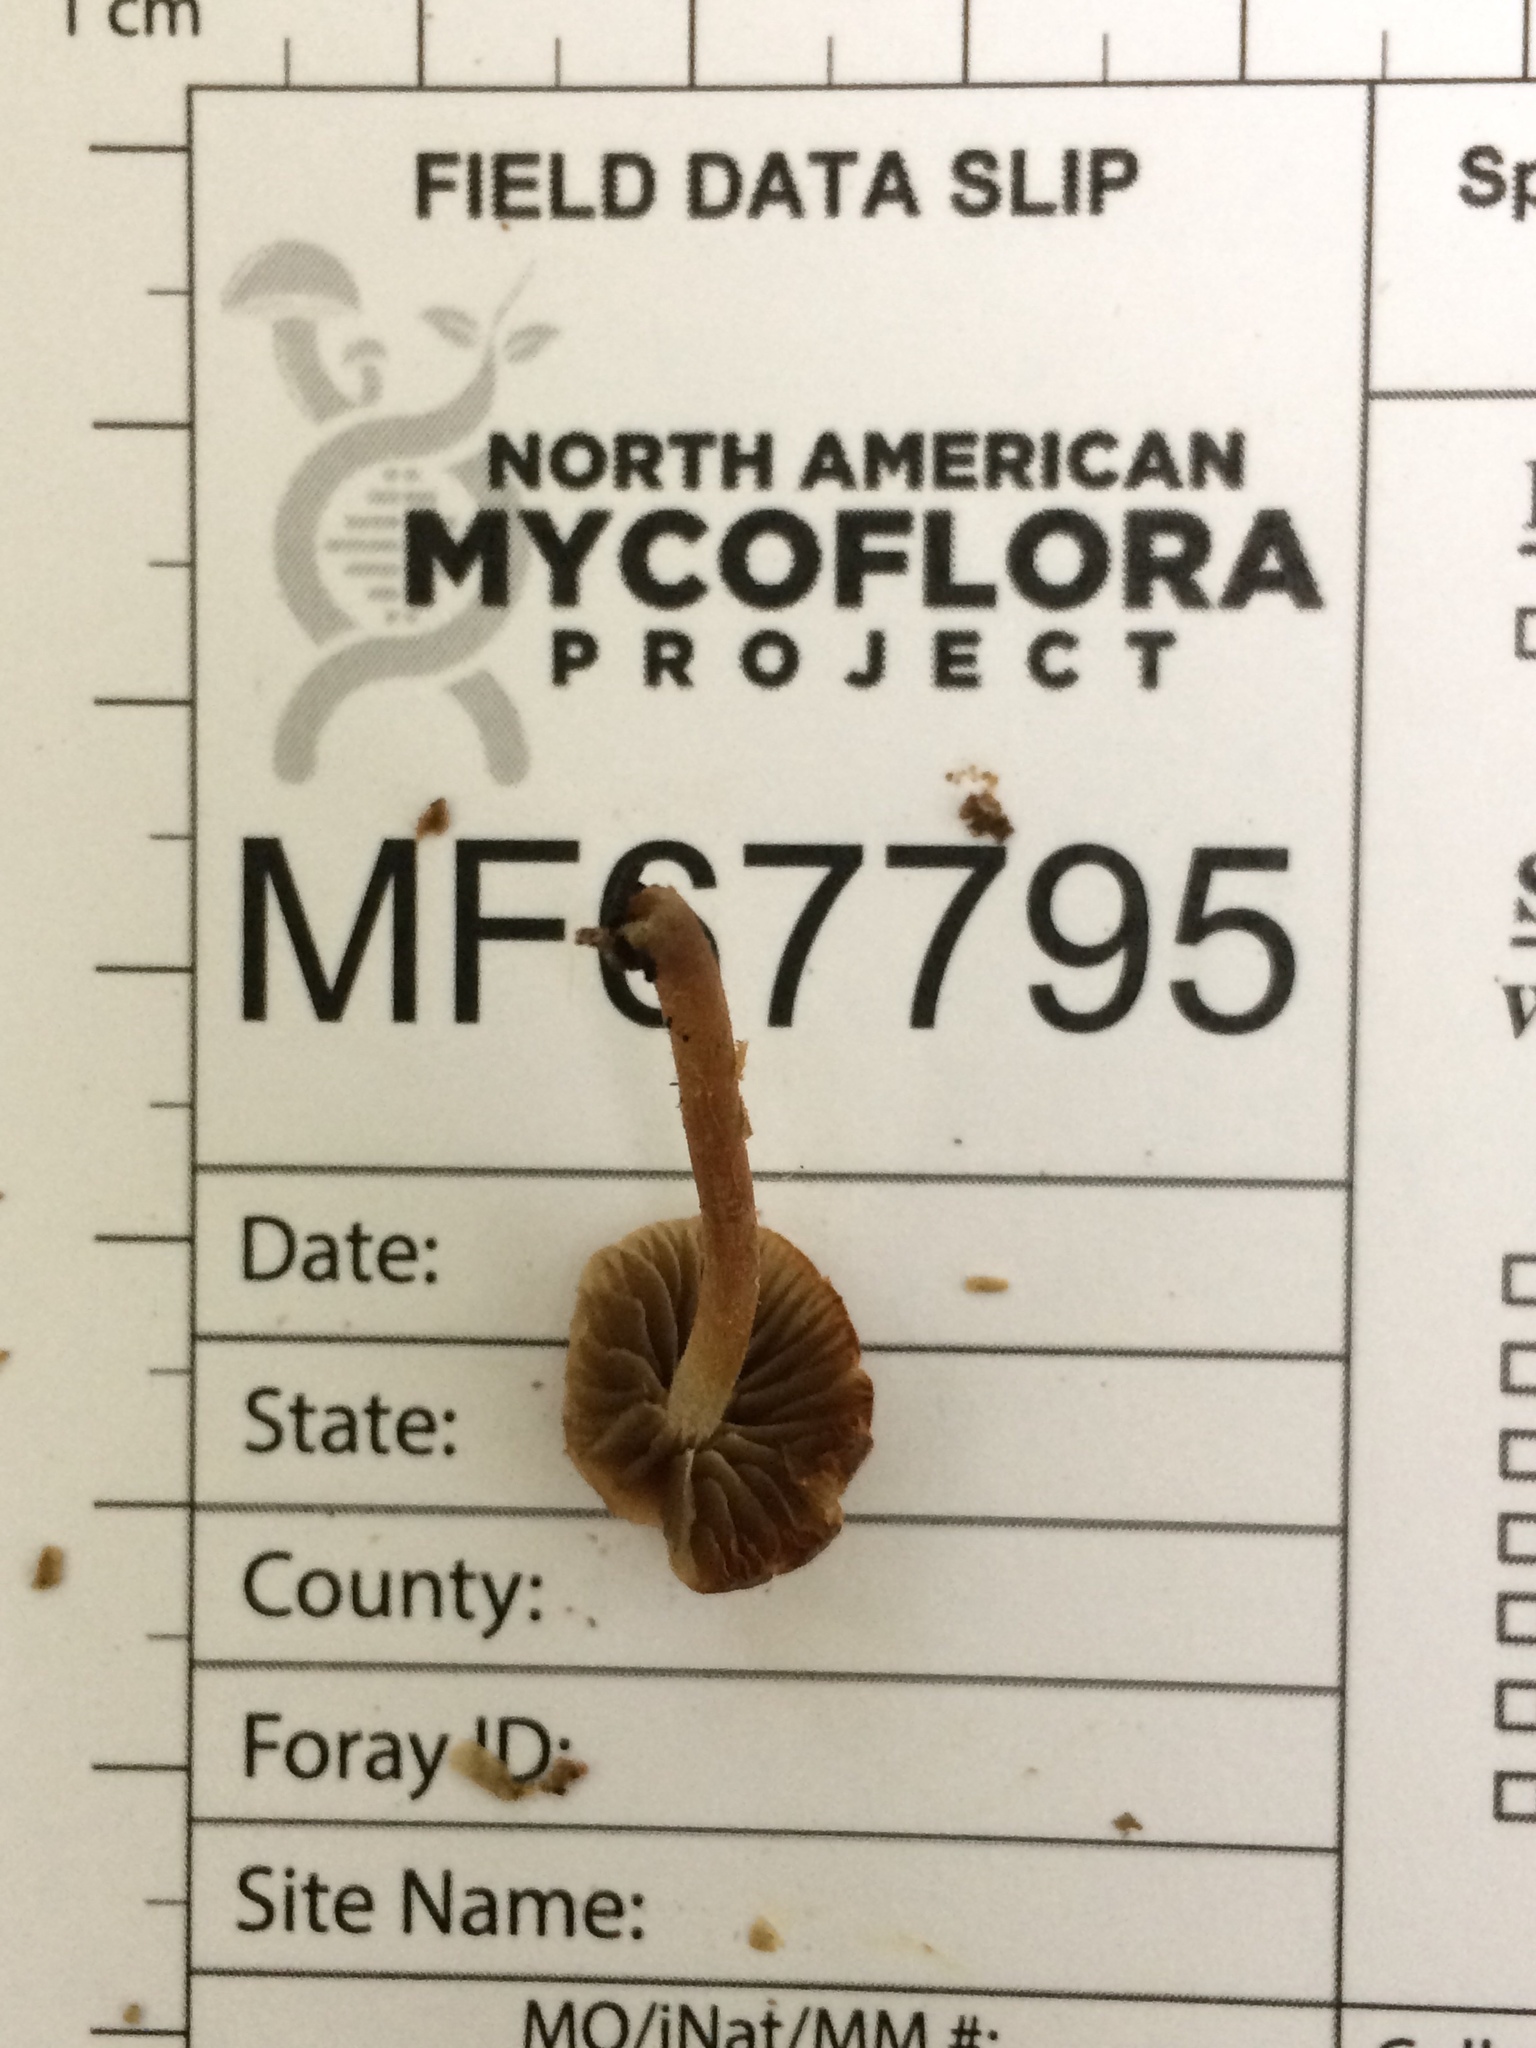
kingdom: Fungi
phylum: Basidiomycota
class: Agaricomycetes
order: Agaricales
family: Psathyrellaceae
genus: Psathyrella
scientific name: Psathyrella psammophila
